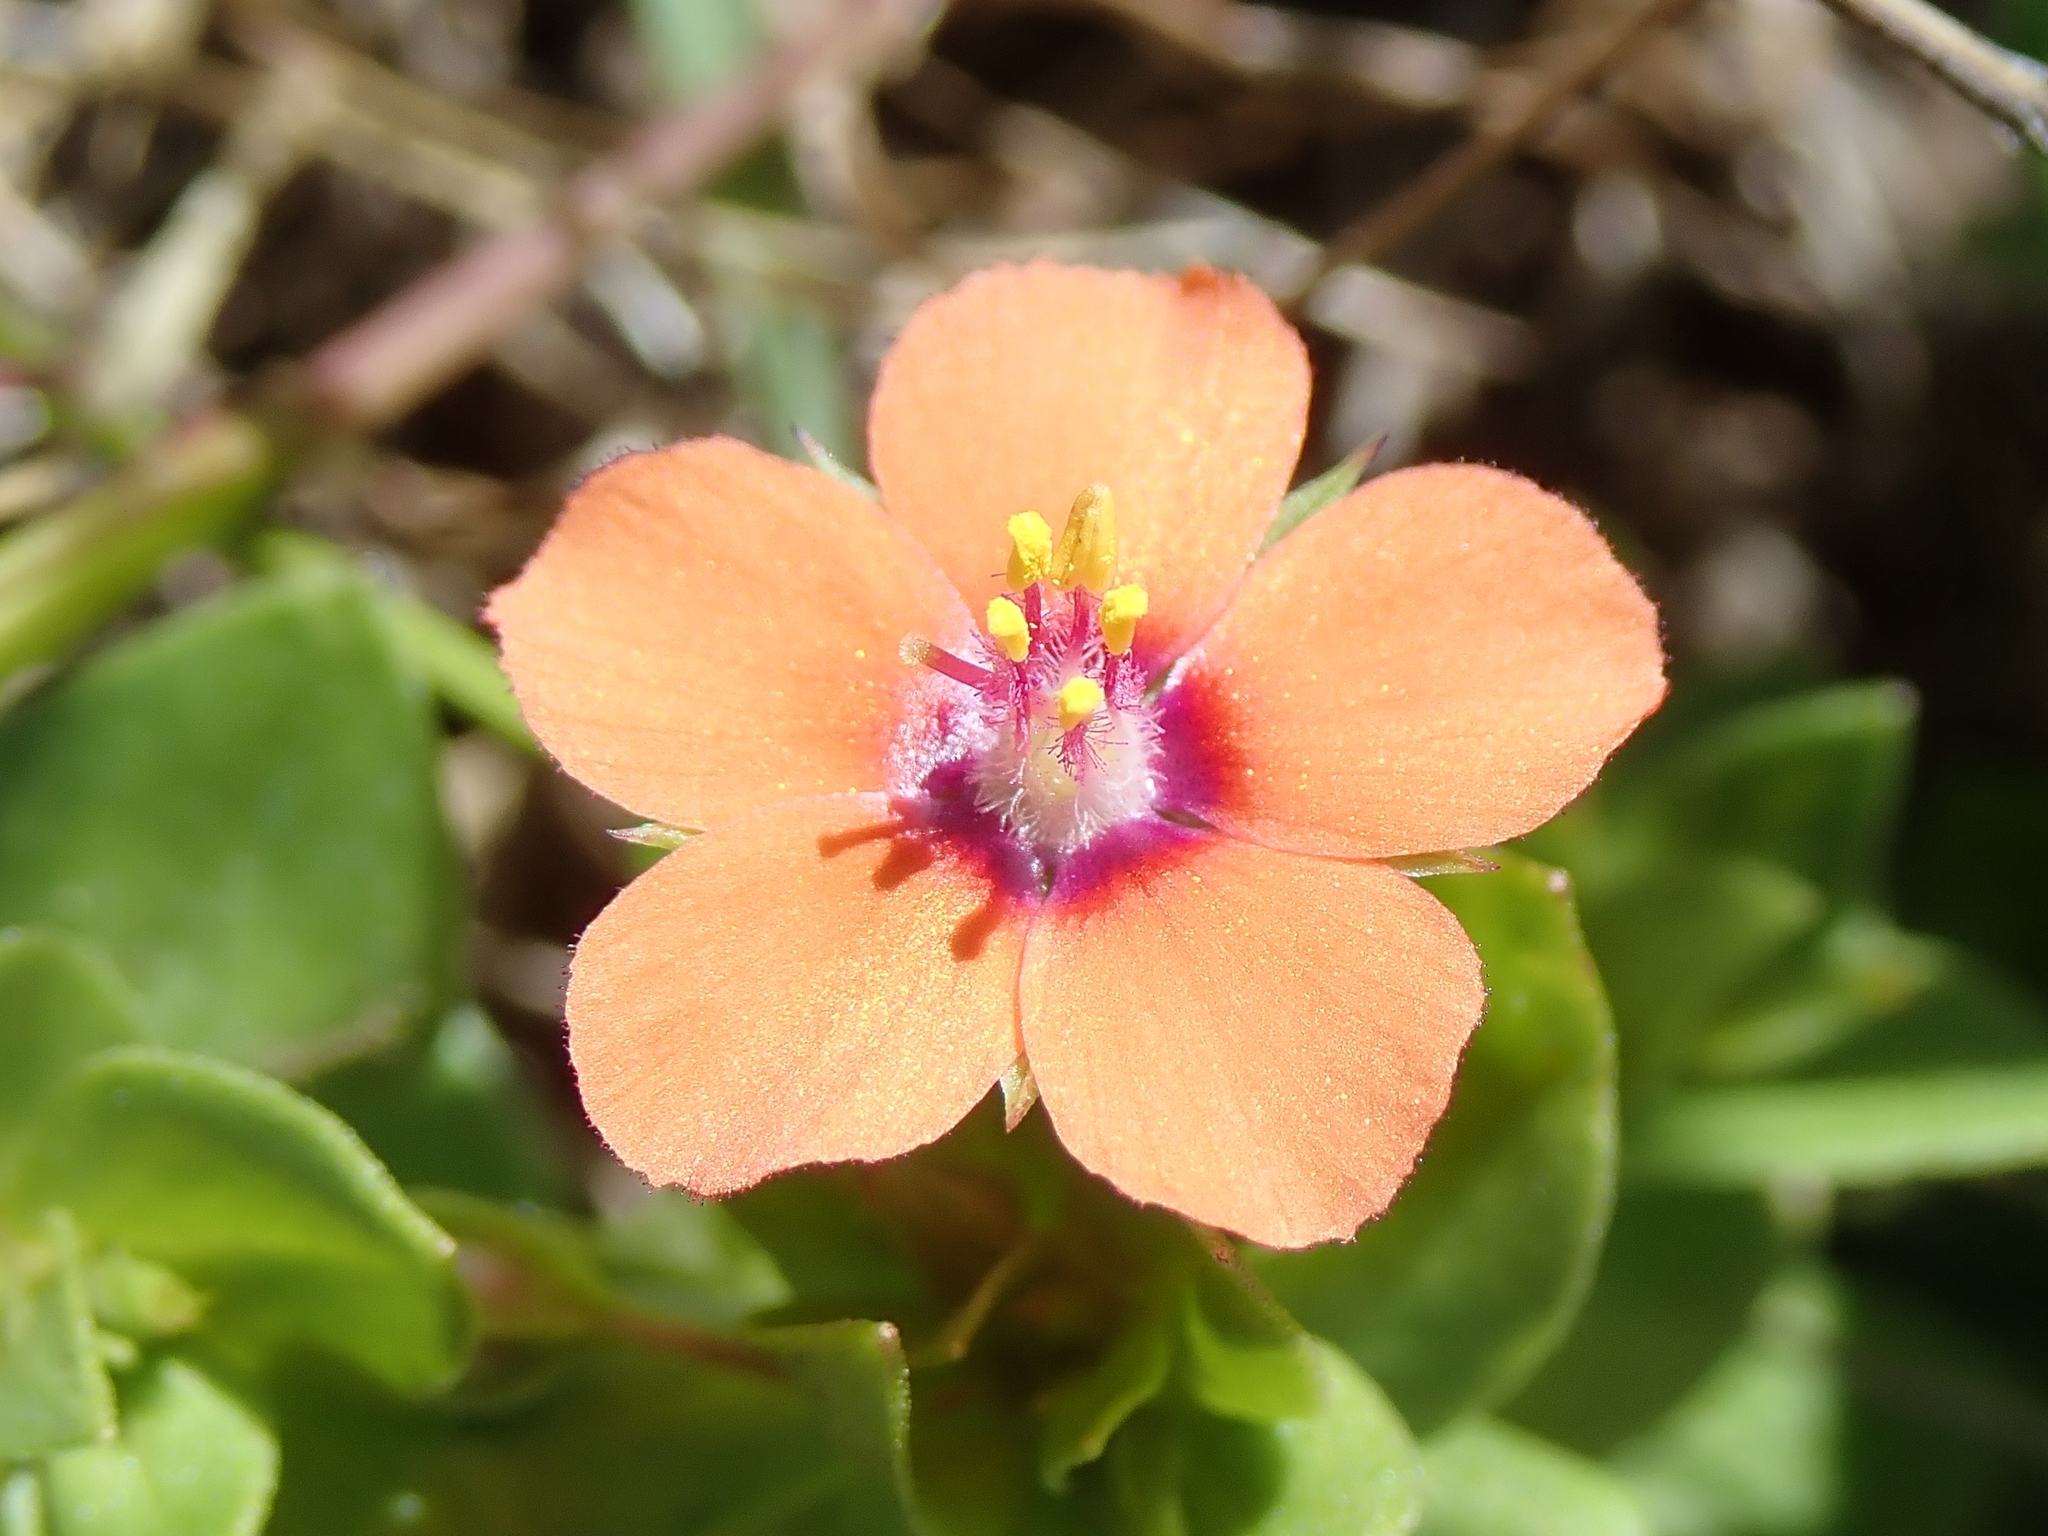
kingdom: Plantae
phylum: Tracheophyta
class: Magnoliopsida
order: Ericales
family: Primulaceae
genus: Lysimachia
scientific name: Lysimachia arvensis
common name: Scarlet pimpernel
